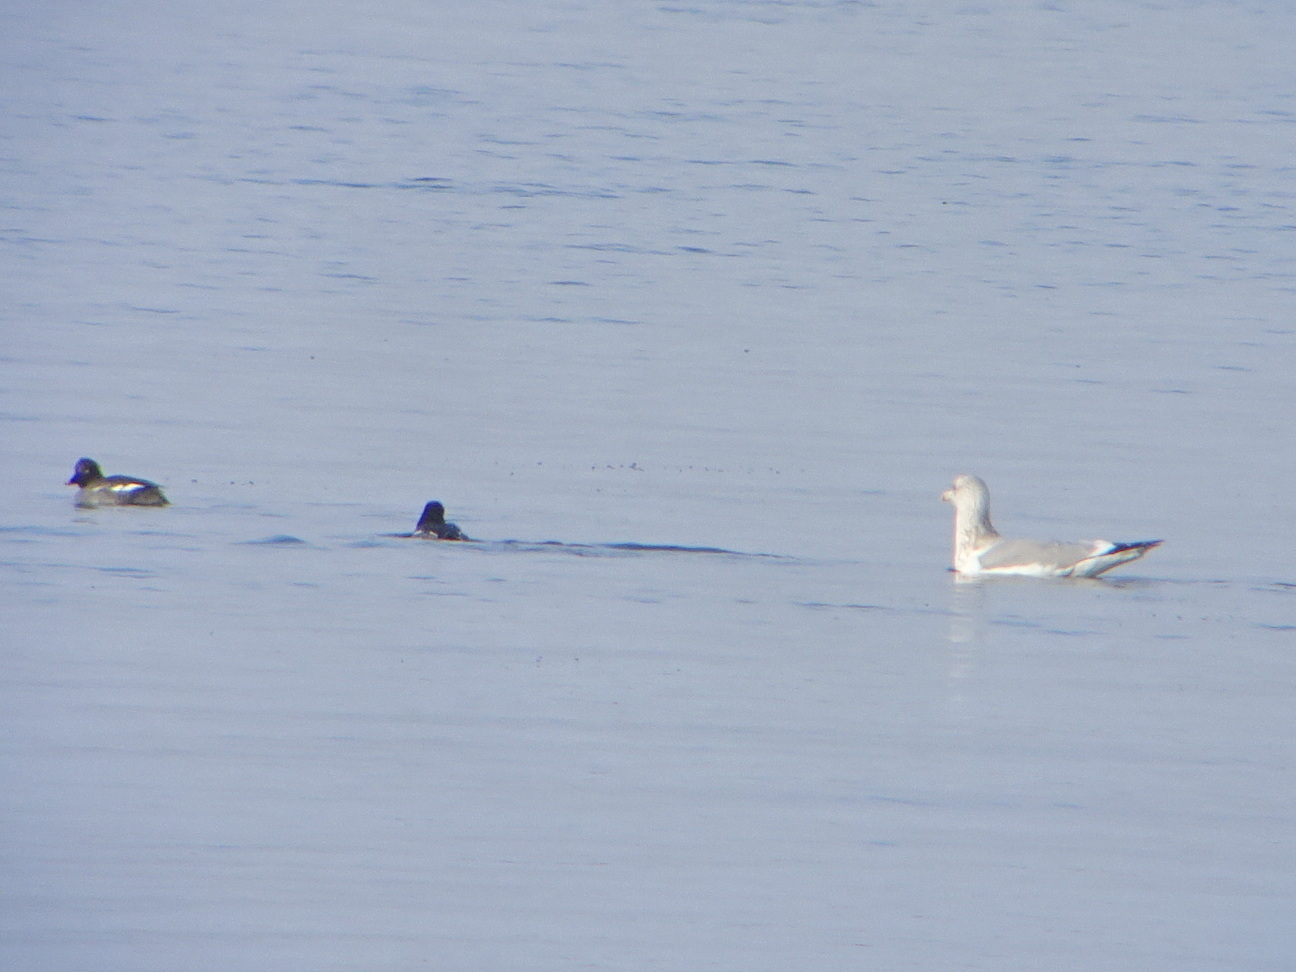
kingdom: Animalia
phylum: Chordata
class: Aves
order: Charadriiformes
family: Laridae
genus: Larus
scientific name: Larus argentatus
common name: Herring gull
